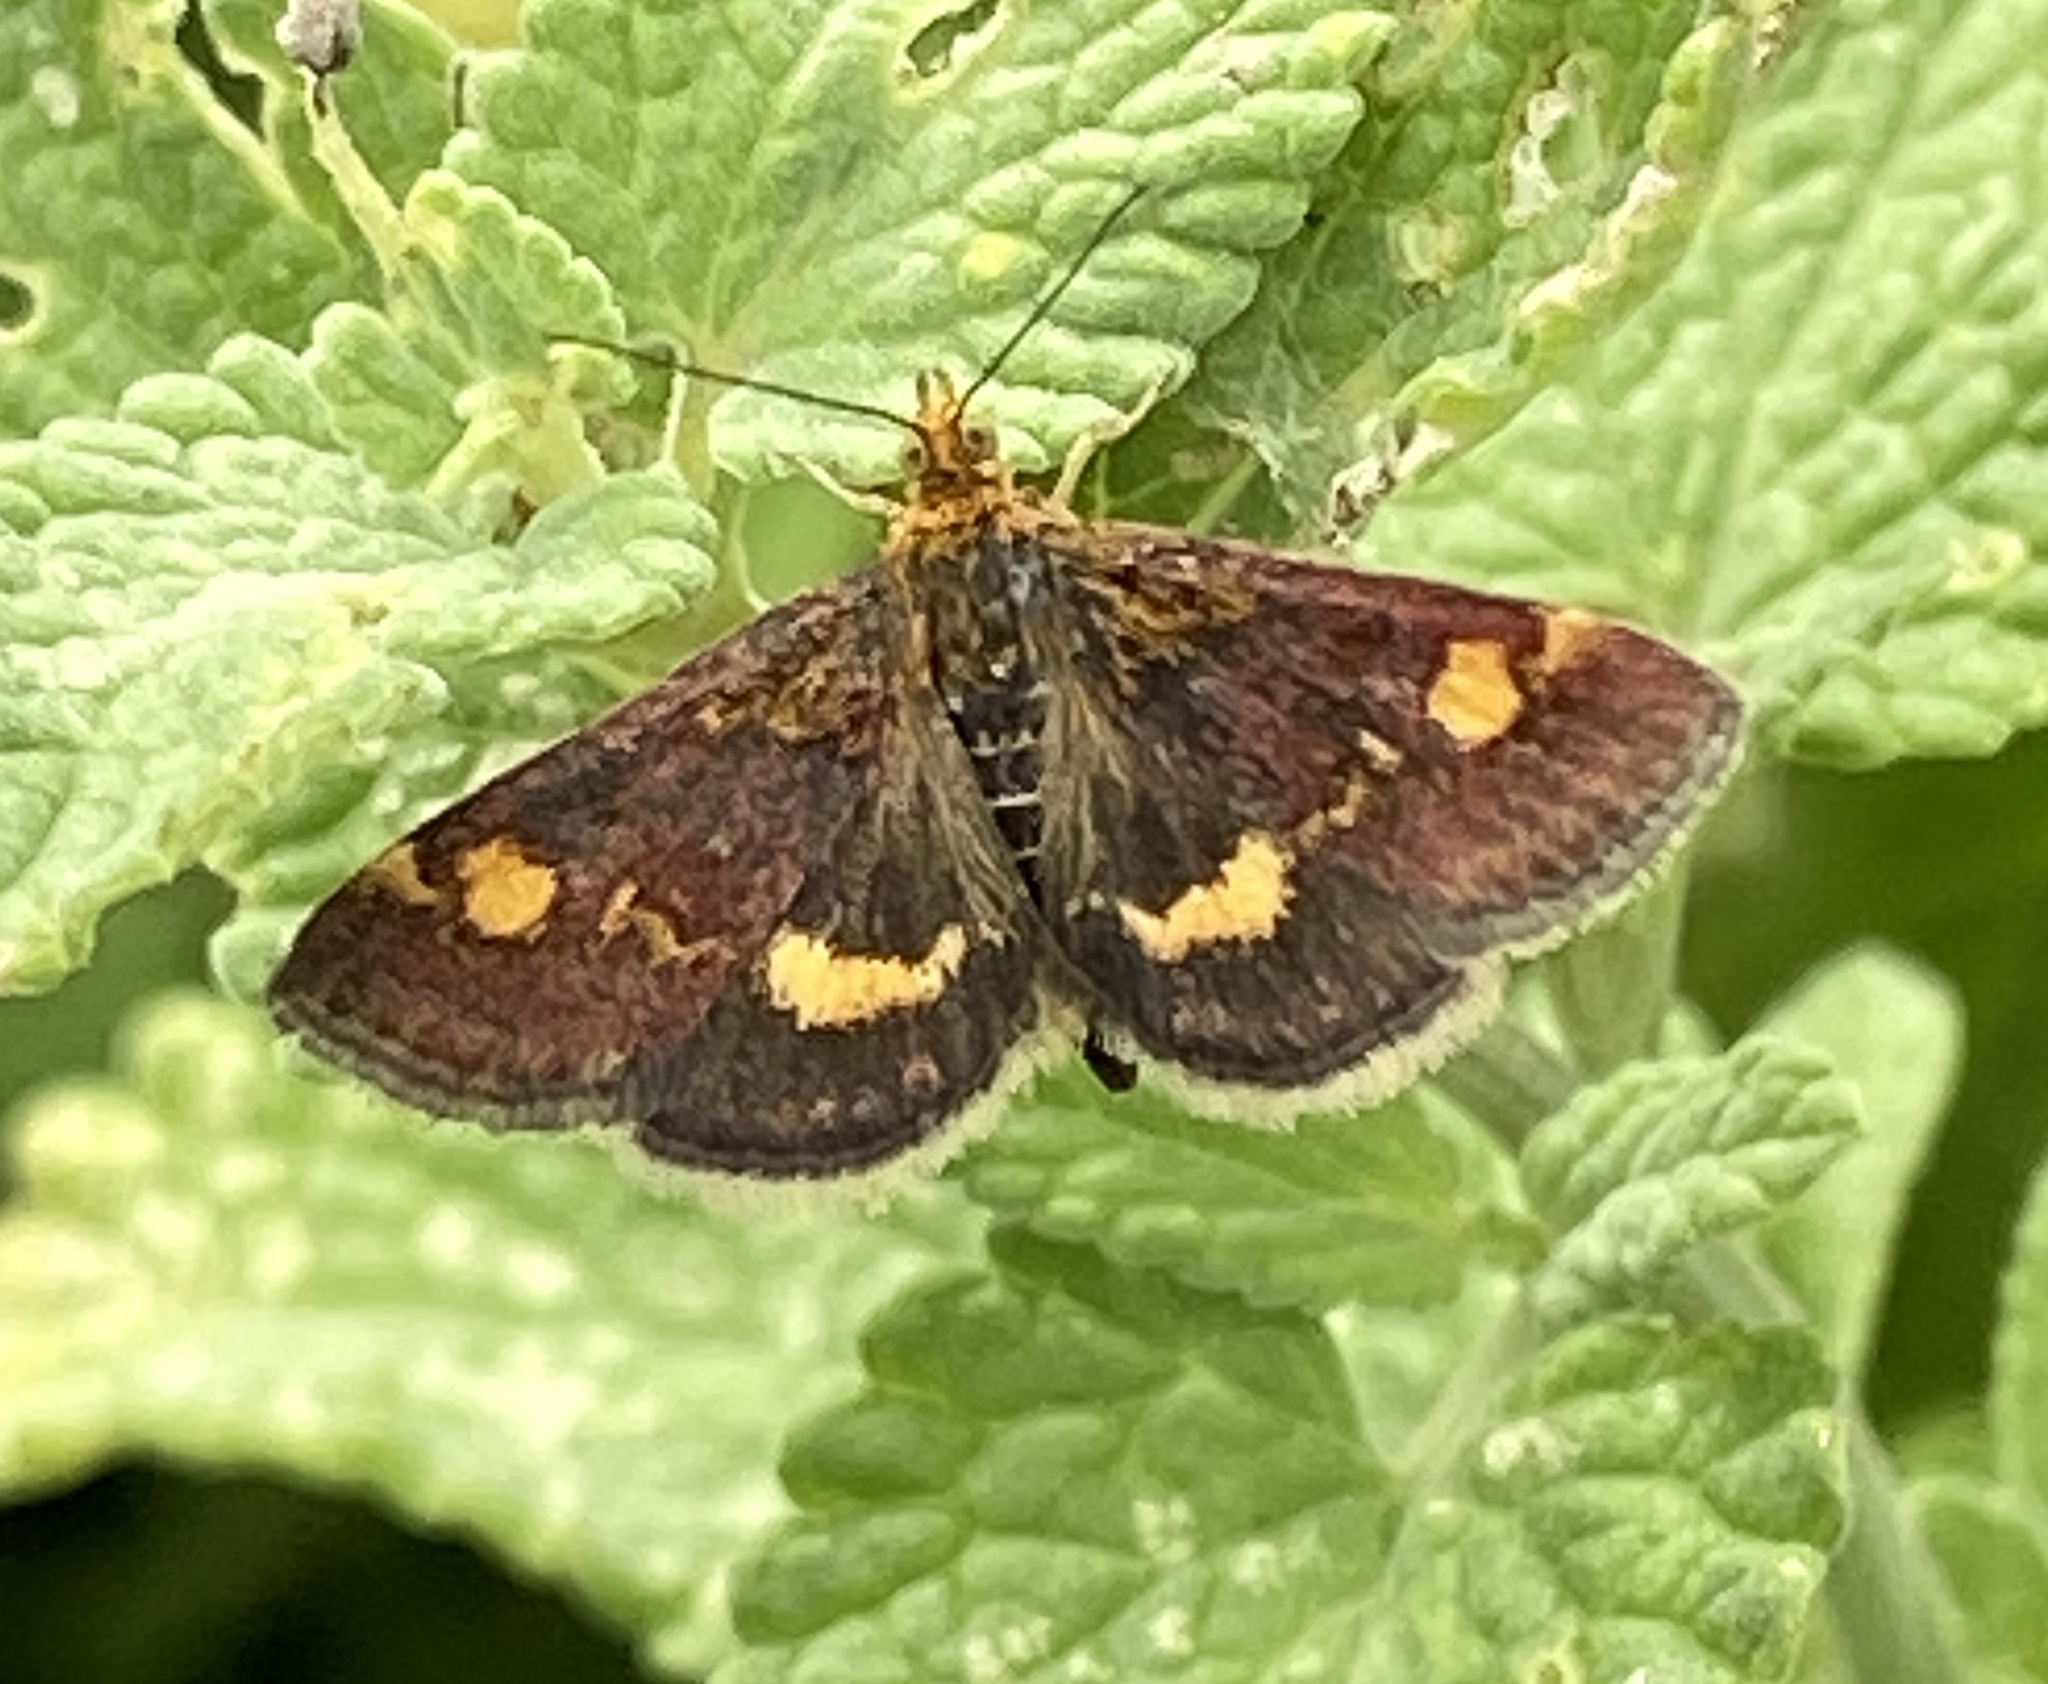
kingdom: Animalia
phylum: Arthropoda
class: Insecta
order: Lepidoptera
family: Crambidae
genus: Pyrausta
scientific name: Pyrausta aurata
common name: Small purple & gold
